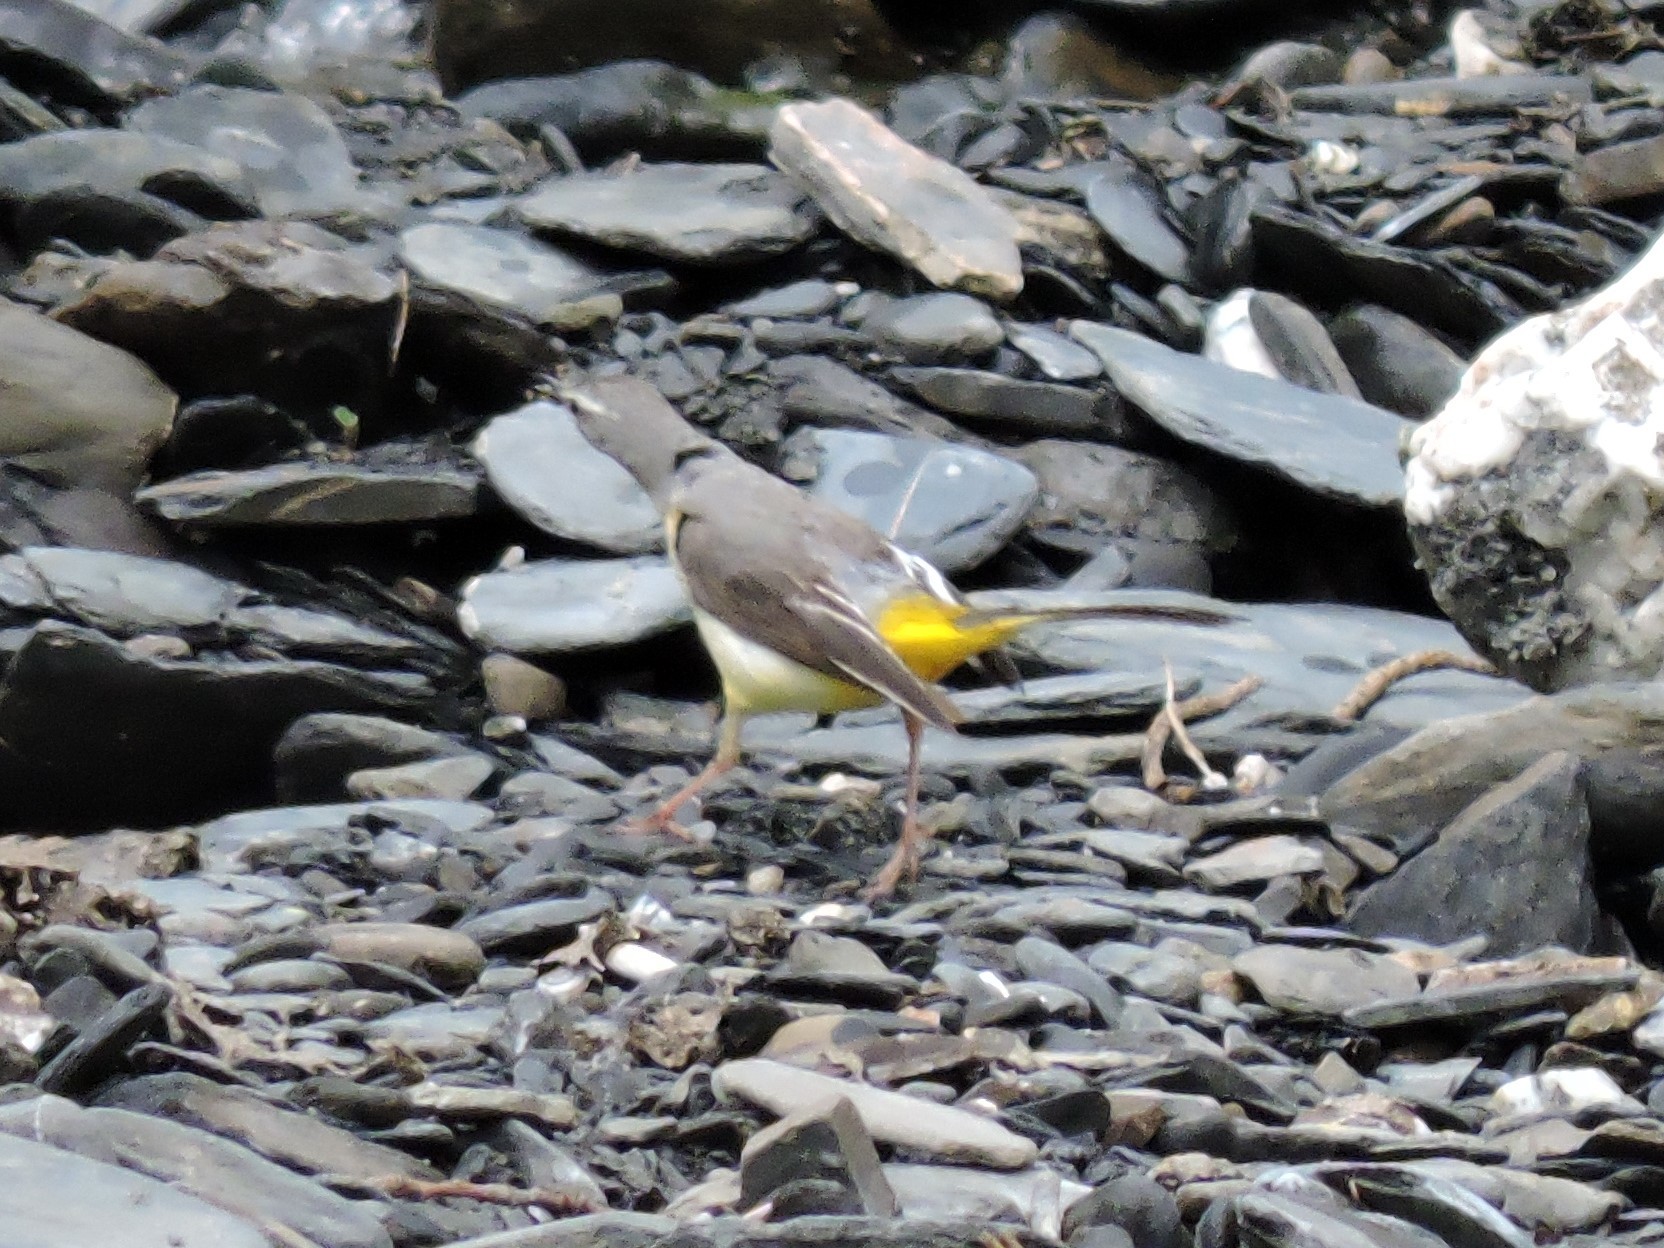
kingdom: Animalia
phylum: Chordata
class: Aves
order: Passeriformes
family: Motacillidae
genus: Motacilla
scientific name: Motacilla cinerea
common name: Grey wagtail
